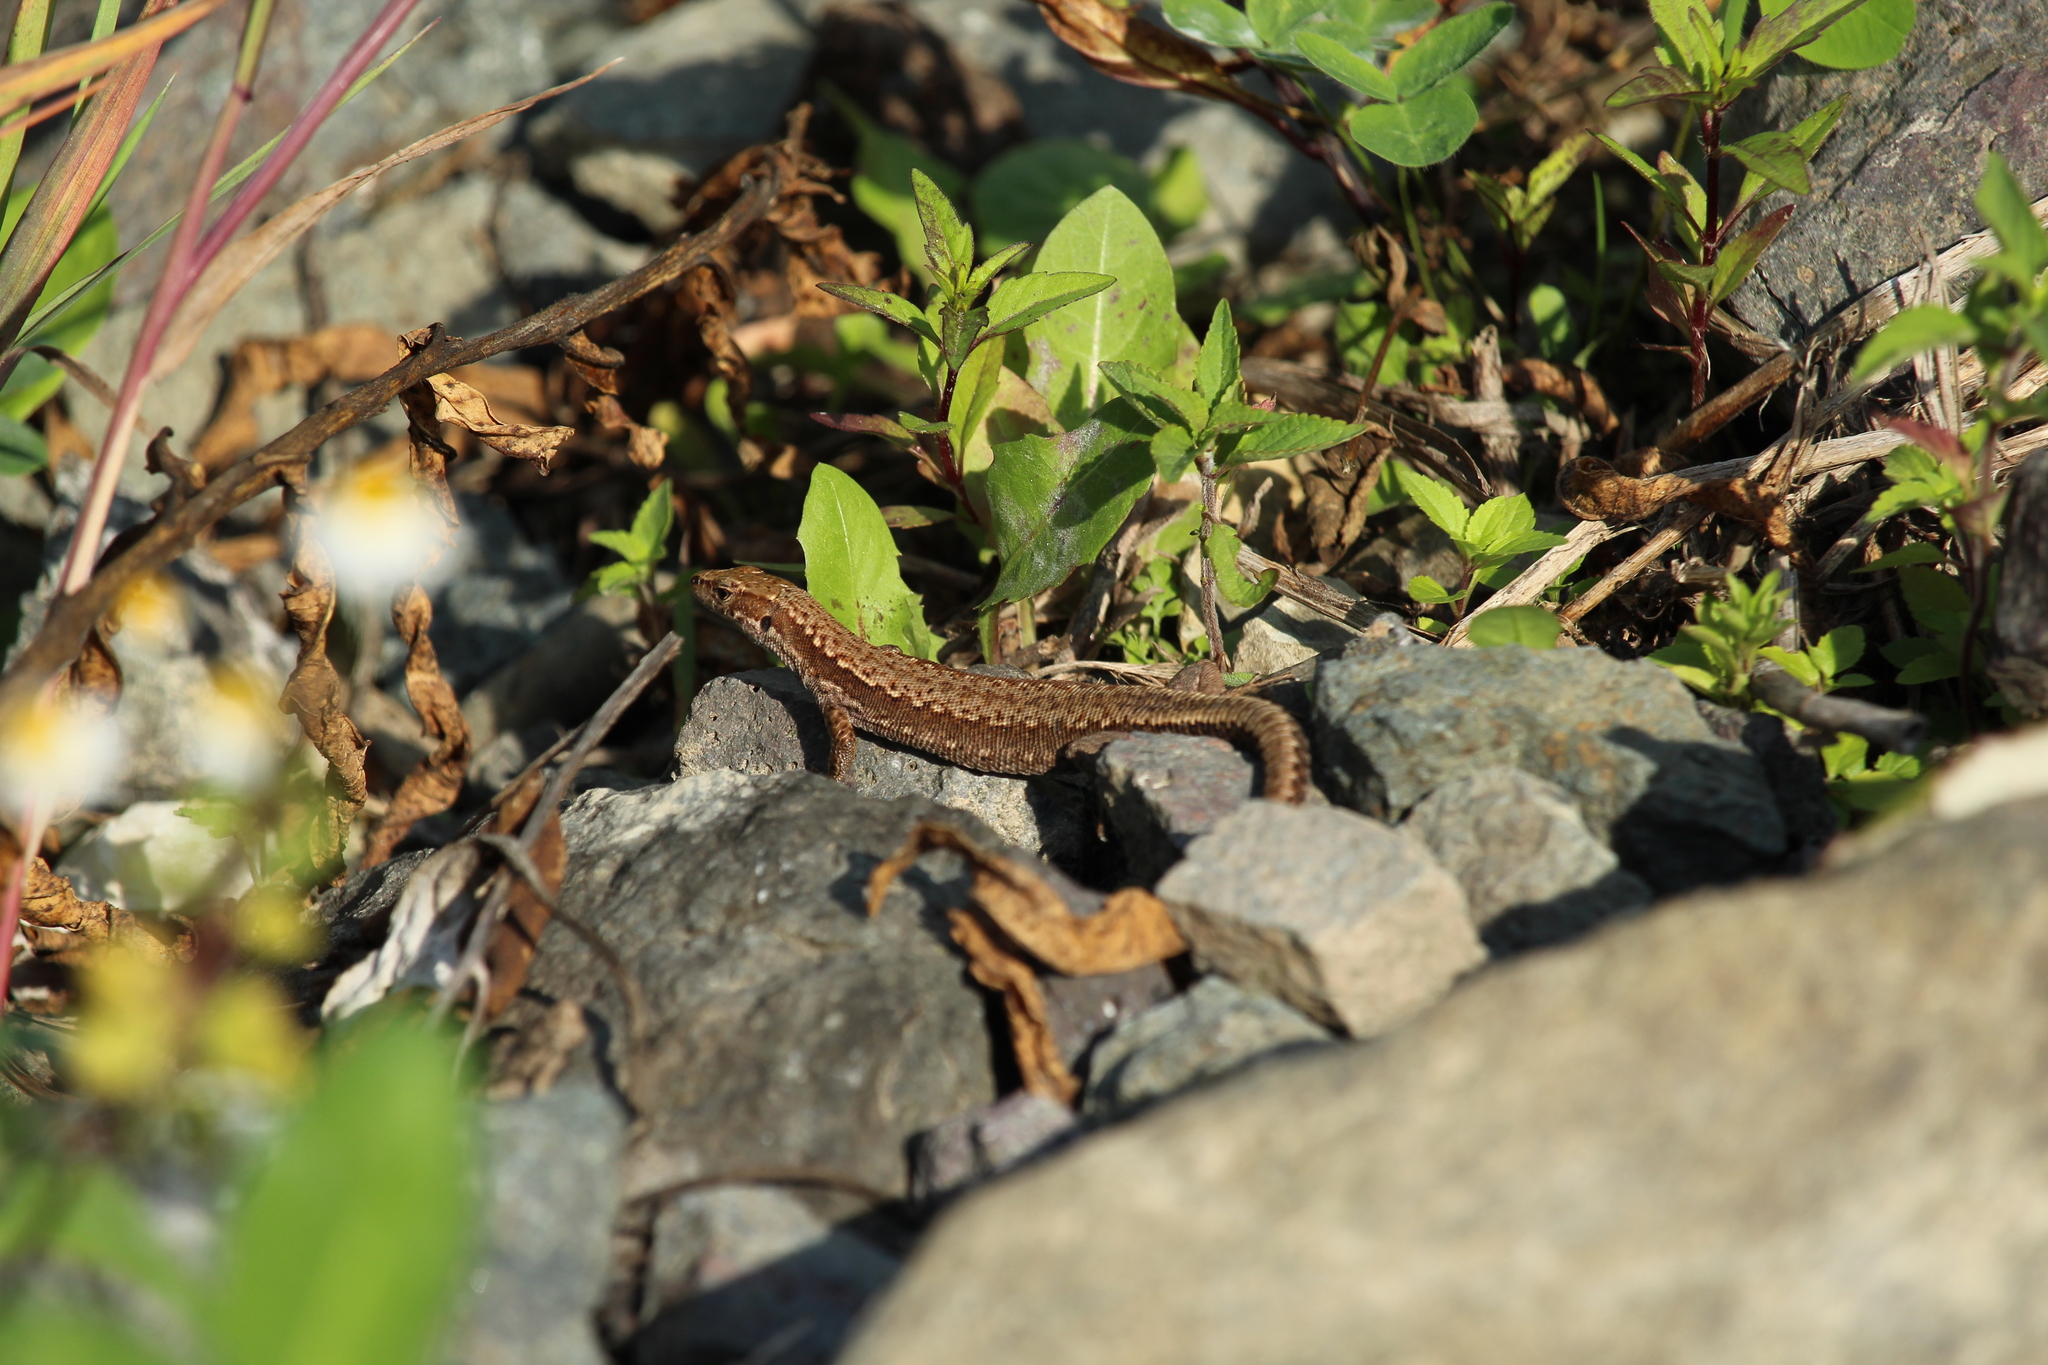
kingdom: Animalia
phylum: Chordata
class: Squamata
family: Lacertidae
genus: Darevskia
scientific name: Darevskia derjugini
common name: Derjugin's lizard
